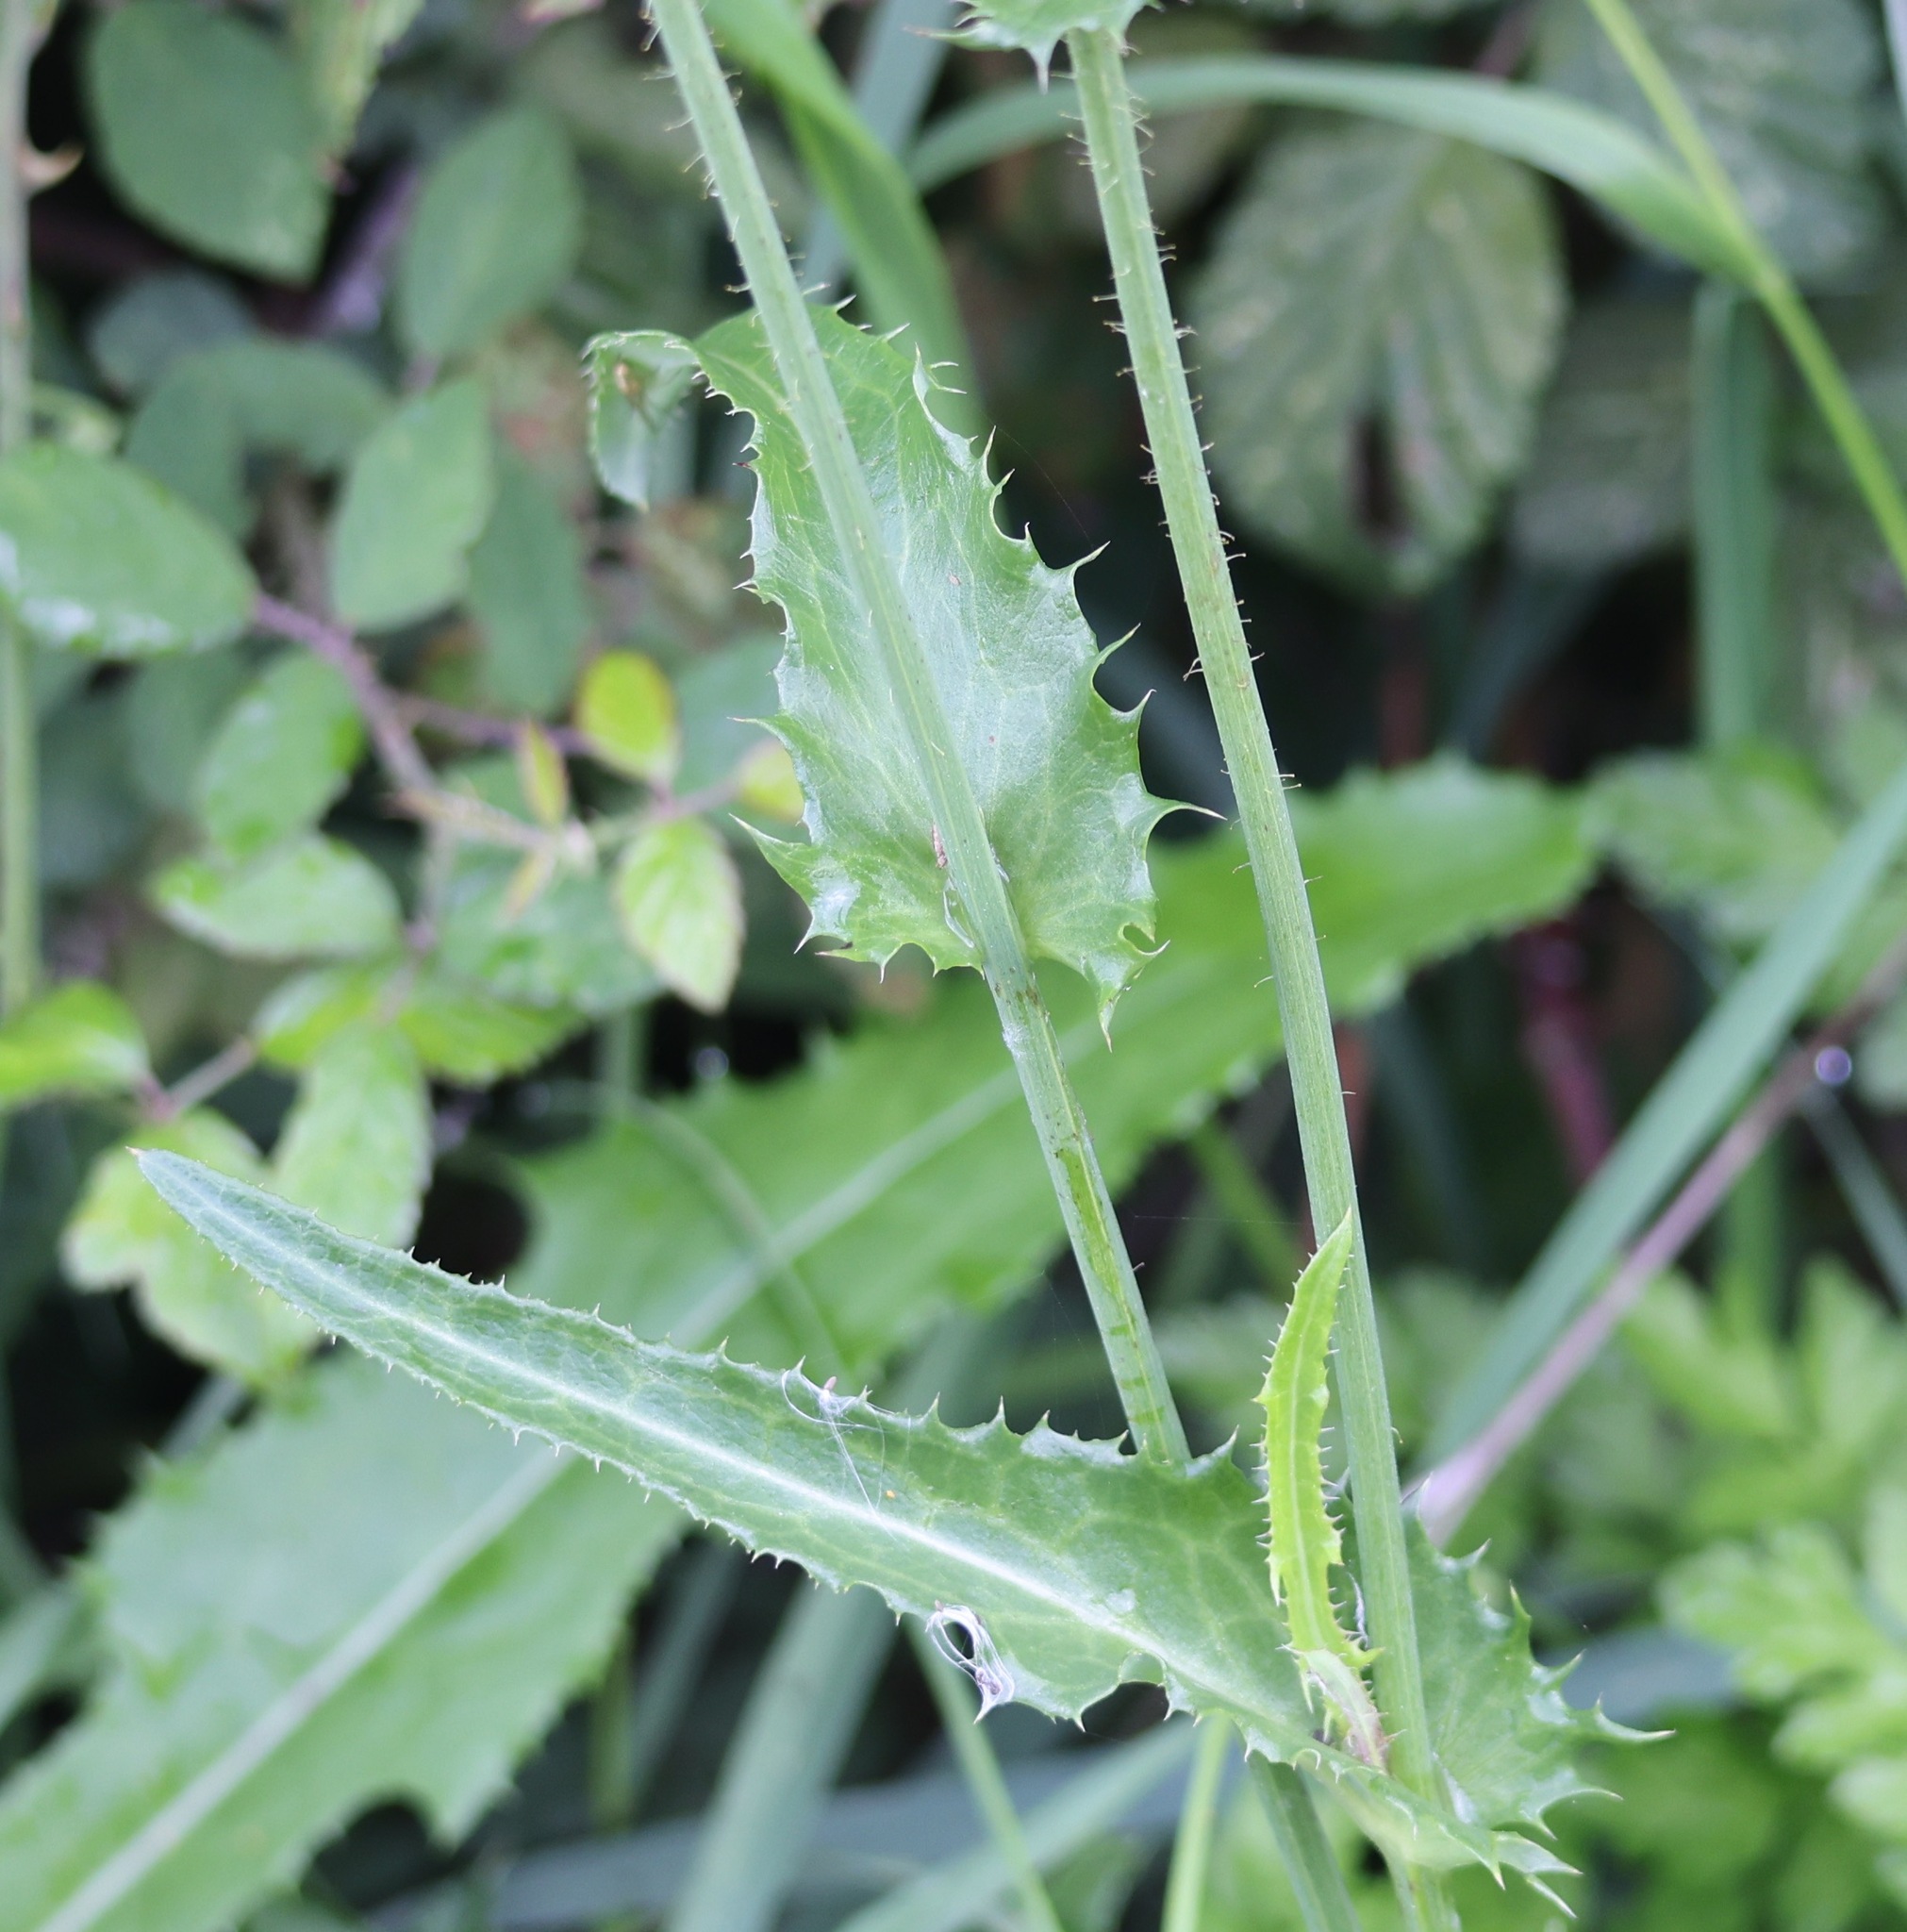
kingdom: Plantae
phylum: Tracheophyta
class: Magnoliopsida
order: Asterales
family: Asteraceae
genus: Sonchus
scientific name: Sonchus arvensis
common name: Perennial sow-thistle
